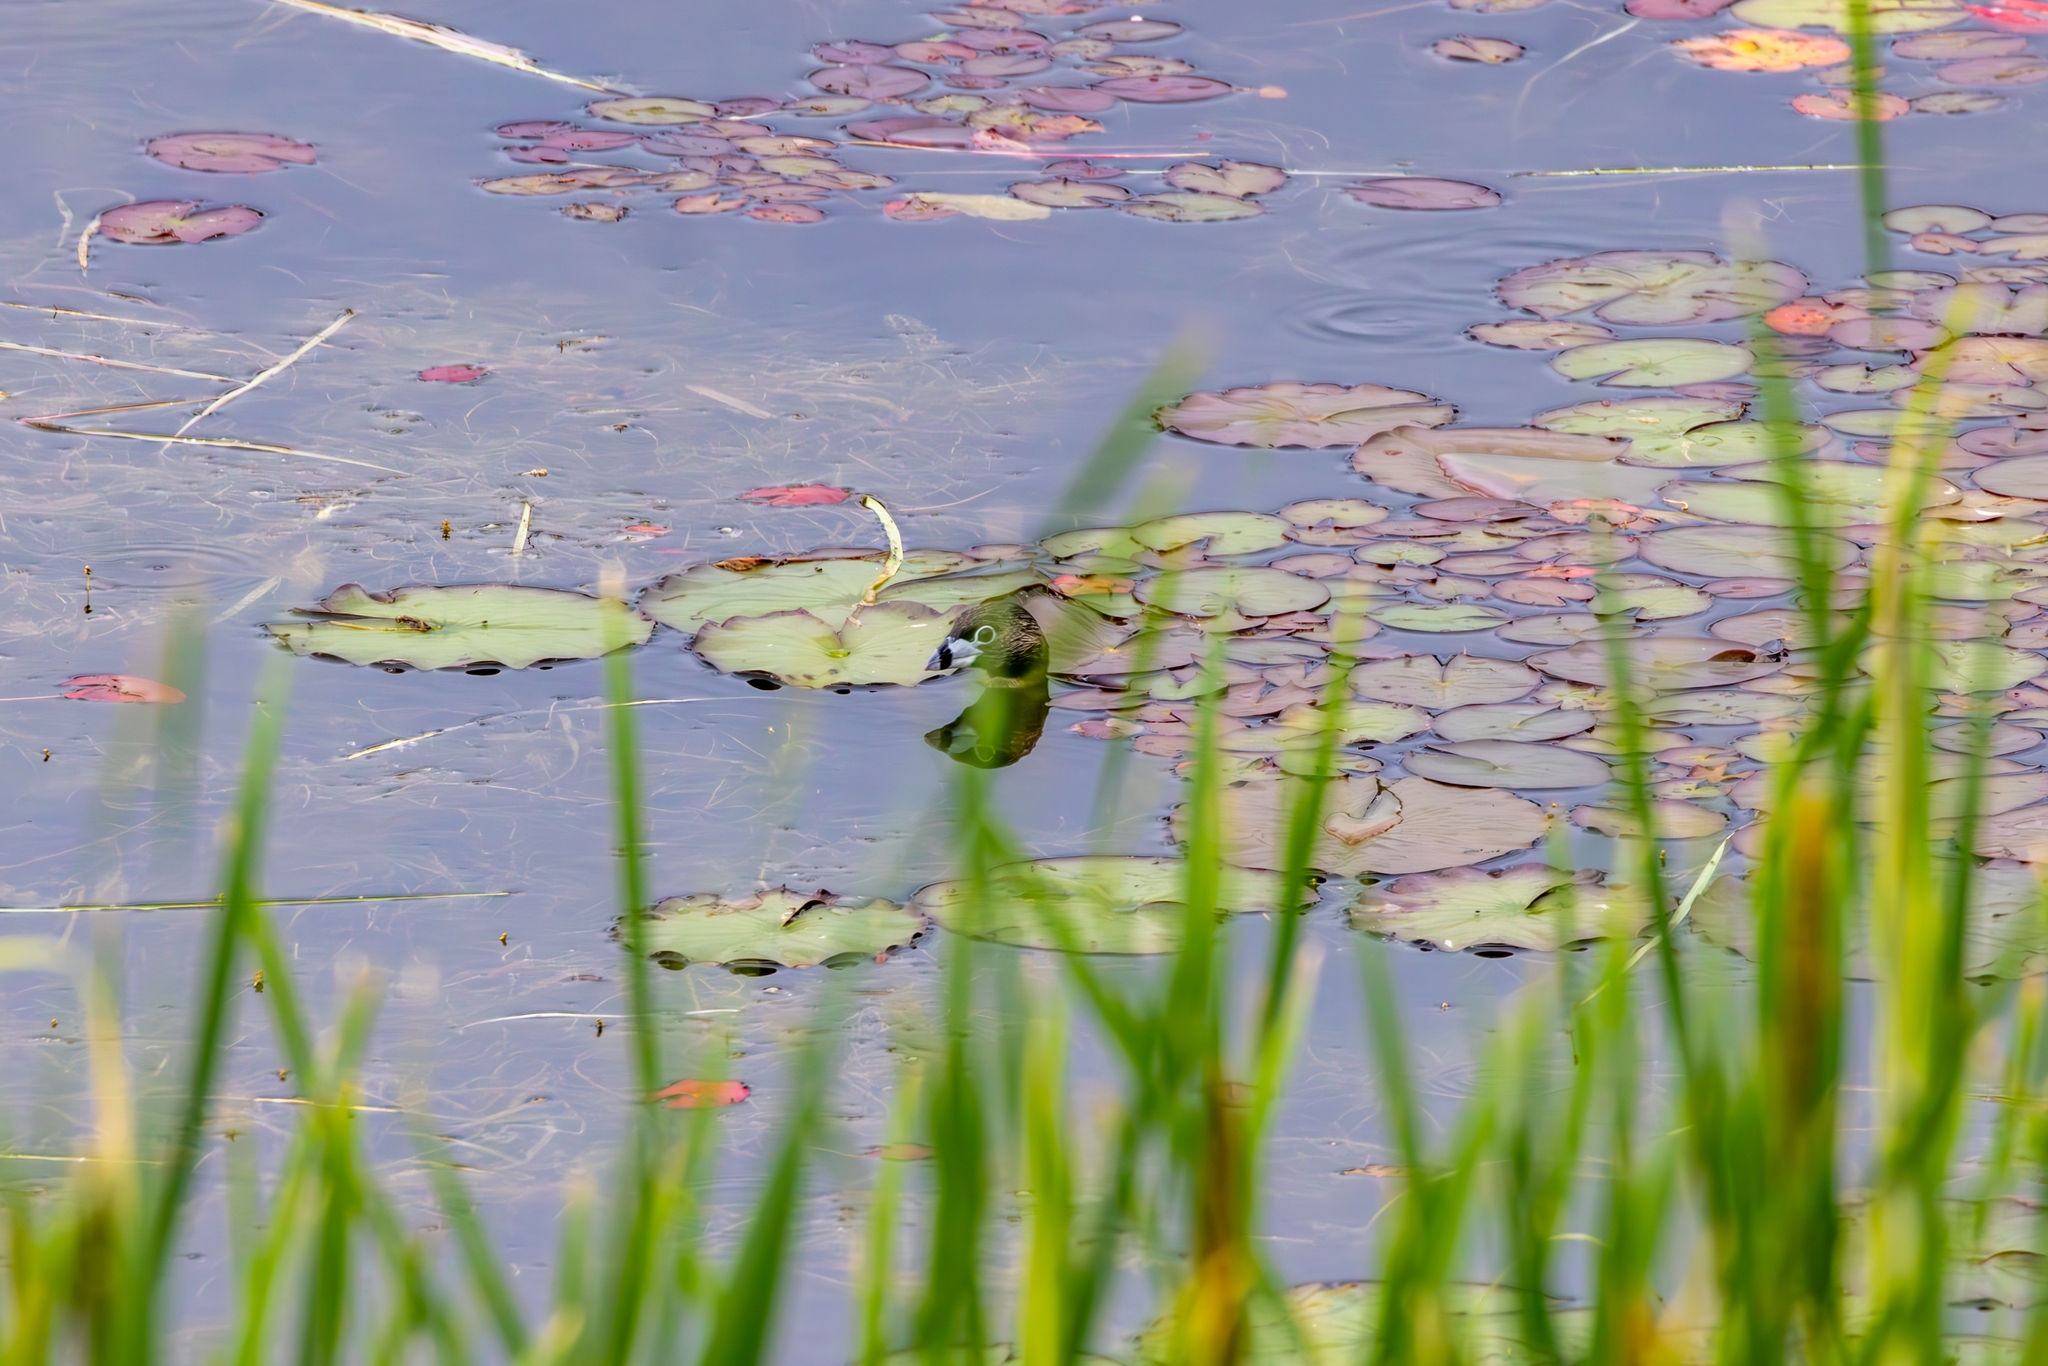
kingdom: Animalia
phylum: Chordata
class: Aves
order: Podicipediformes
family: Podicipedidae
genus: Podilymbus
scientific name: Podilymbus podiceps
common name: Pied-billed grebe
